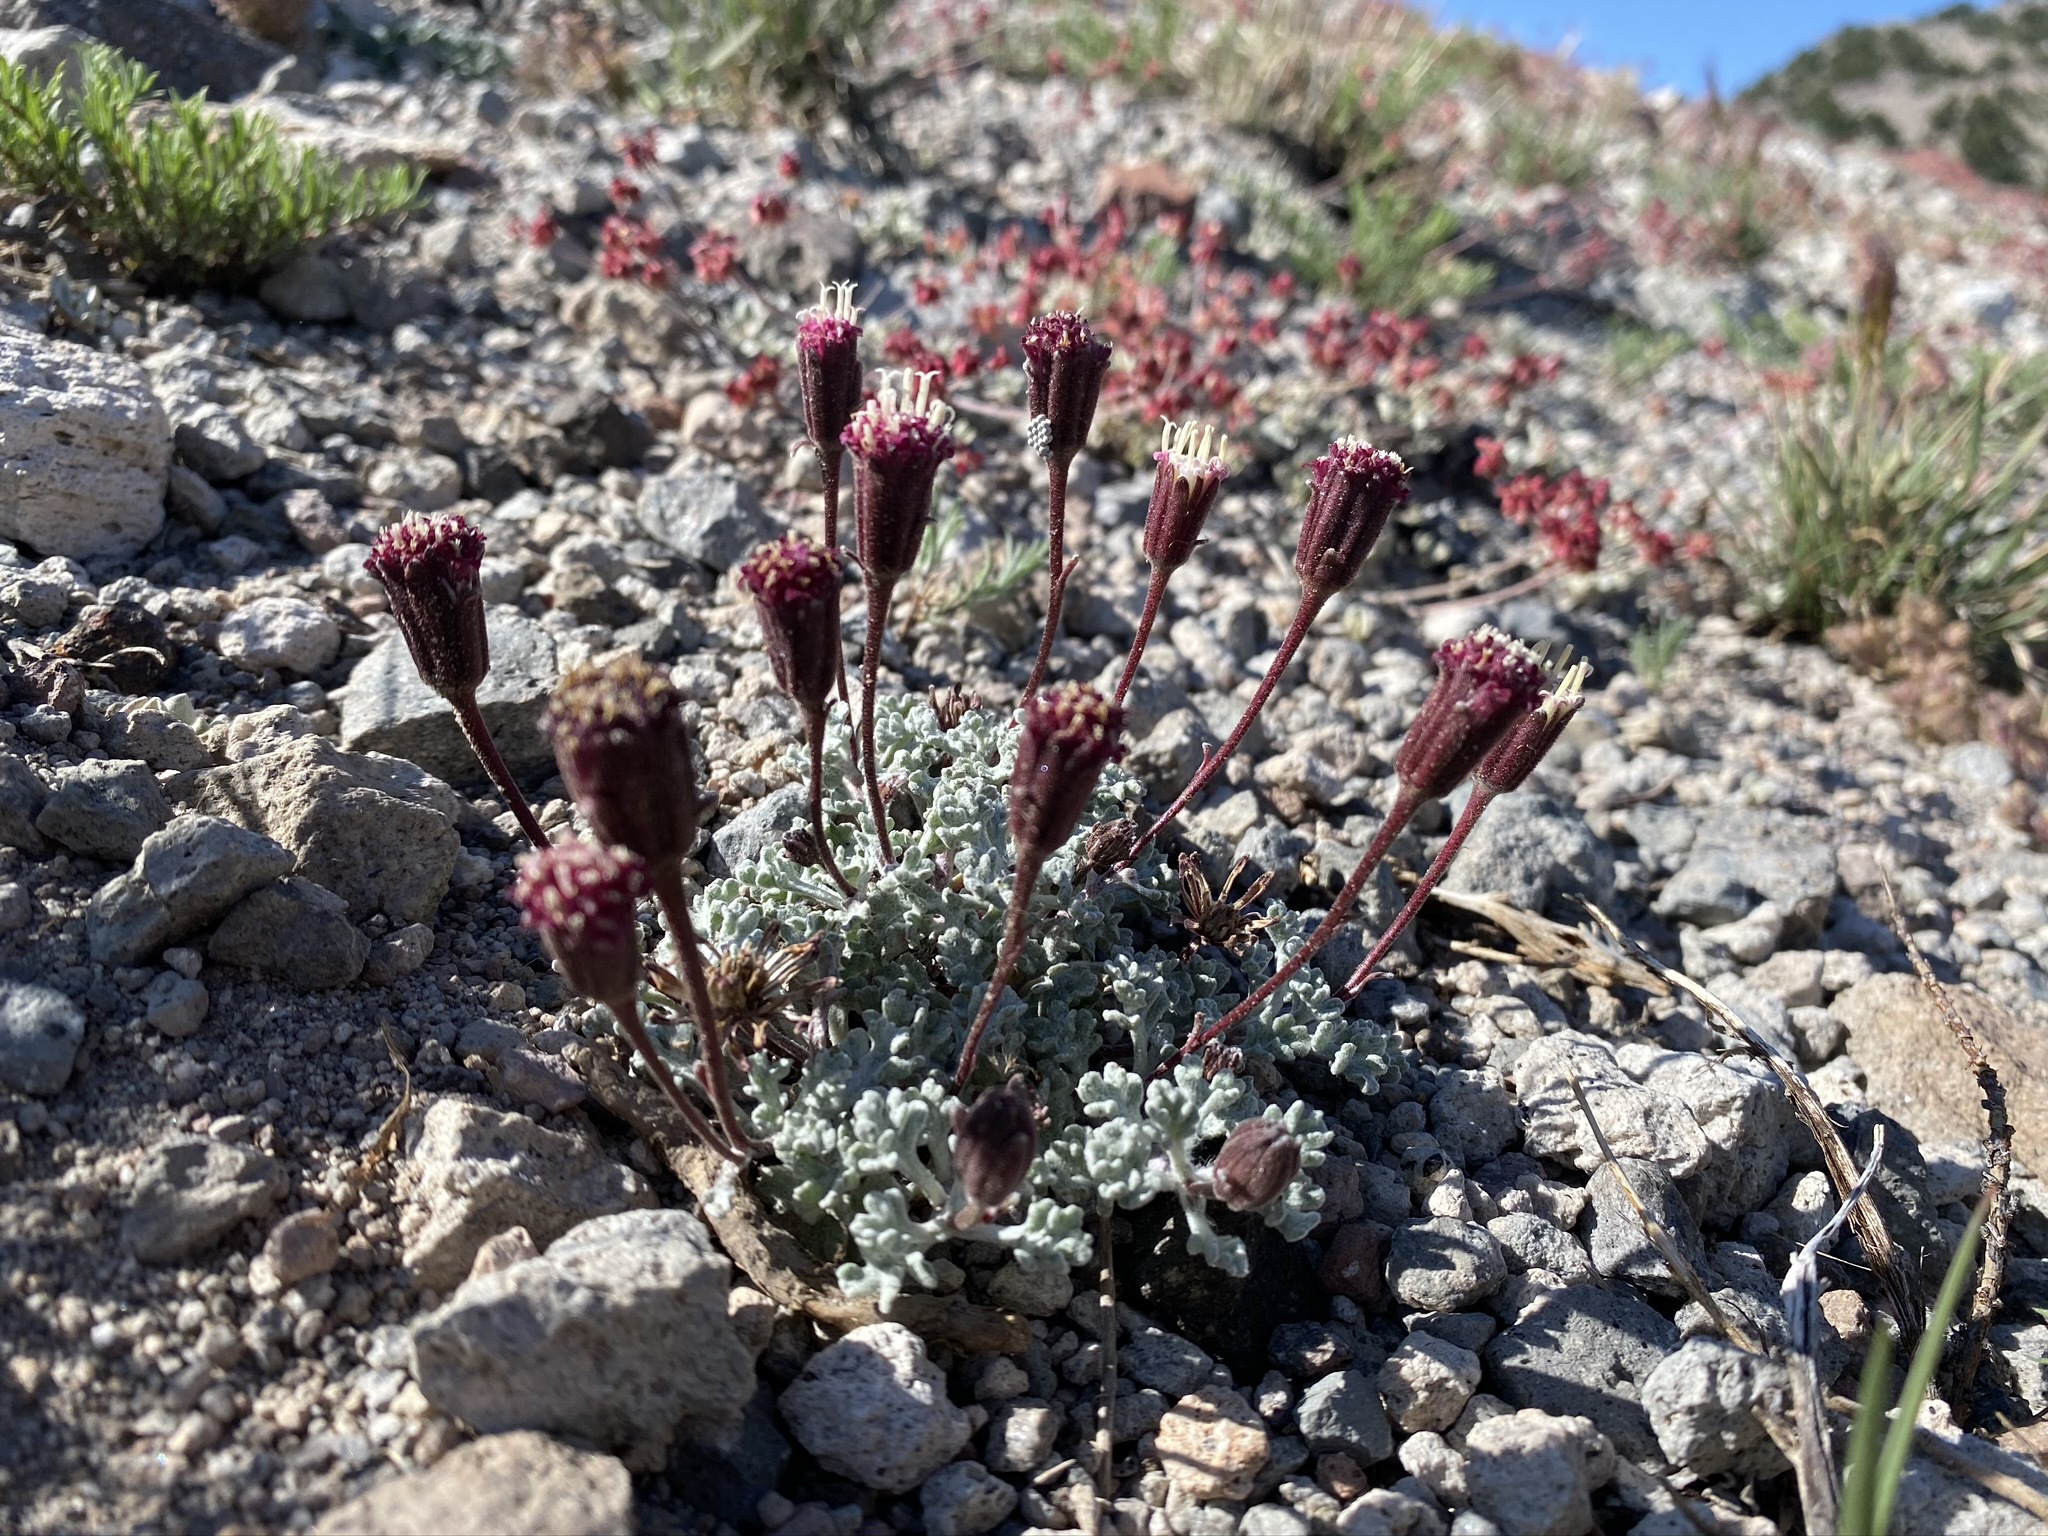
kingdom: Plantae
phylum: Tracheophyta
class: Magnoliopsida
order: Asterales
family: Asteraceae
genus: Chaenactis
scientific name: Chaenactis nevadensis
